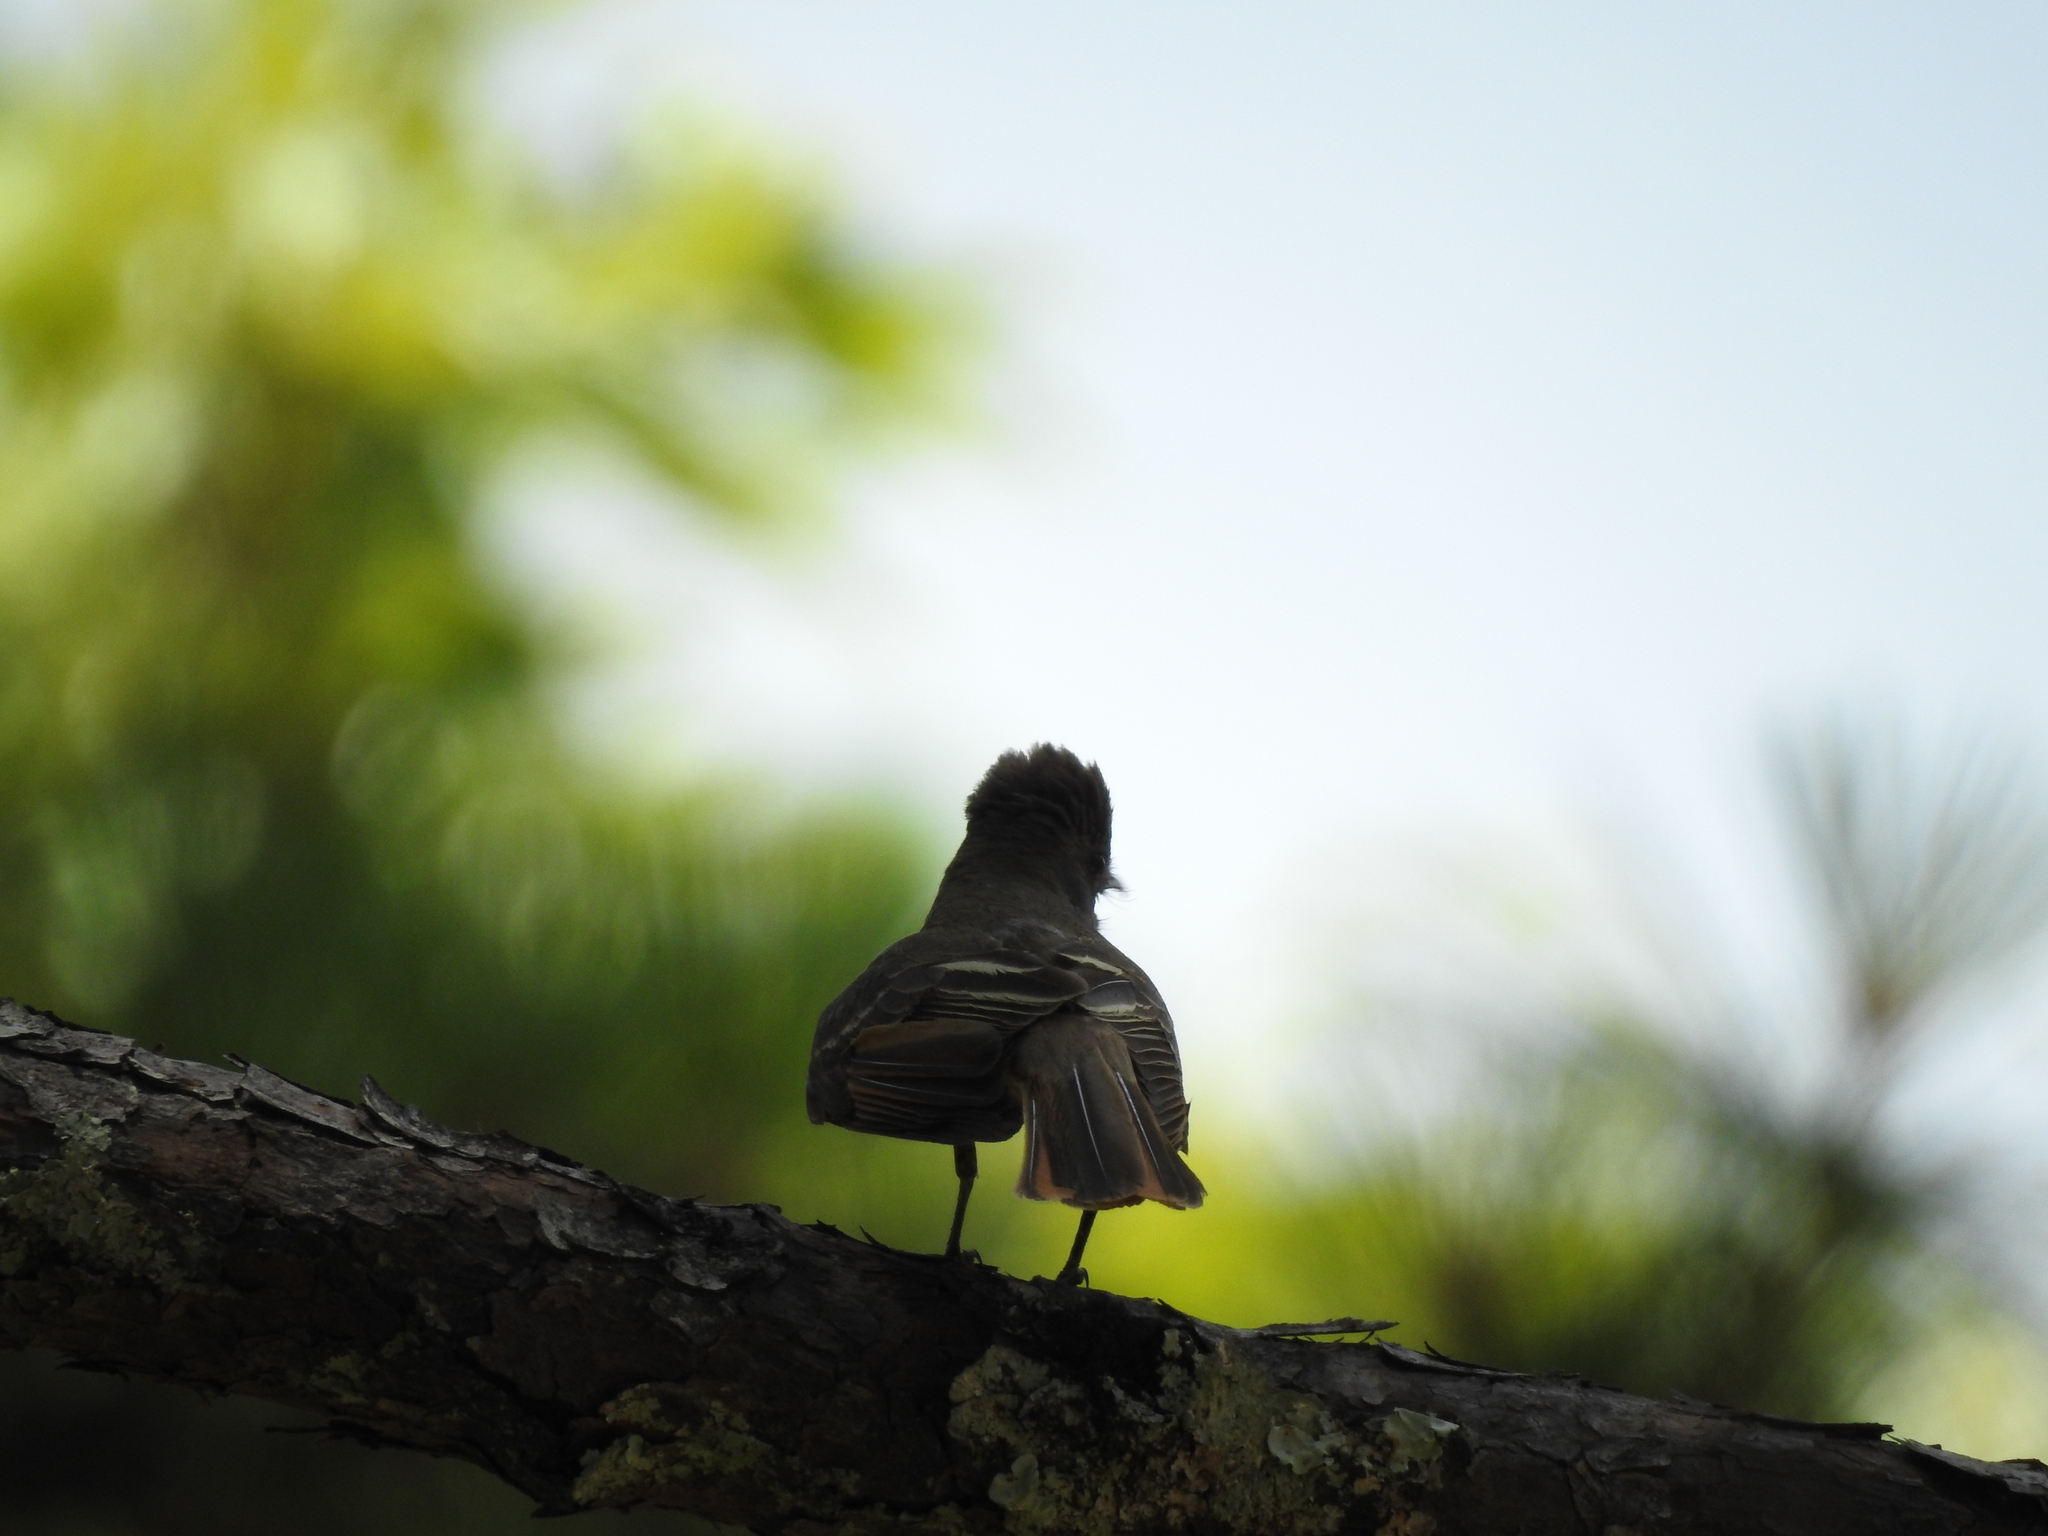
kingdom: Animalia
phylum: Chordata
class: Aves
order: Passeriformes
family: Tyrannidae
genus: Myiarchus
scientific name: Myiarchus crinitus
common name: Great crested flycatcher
